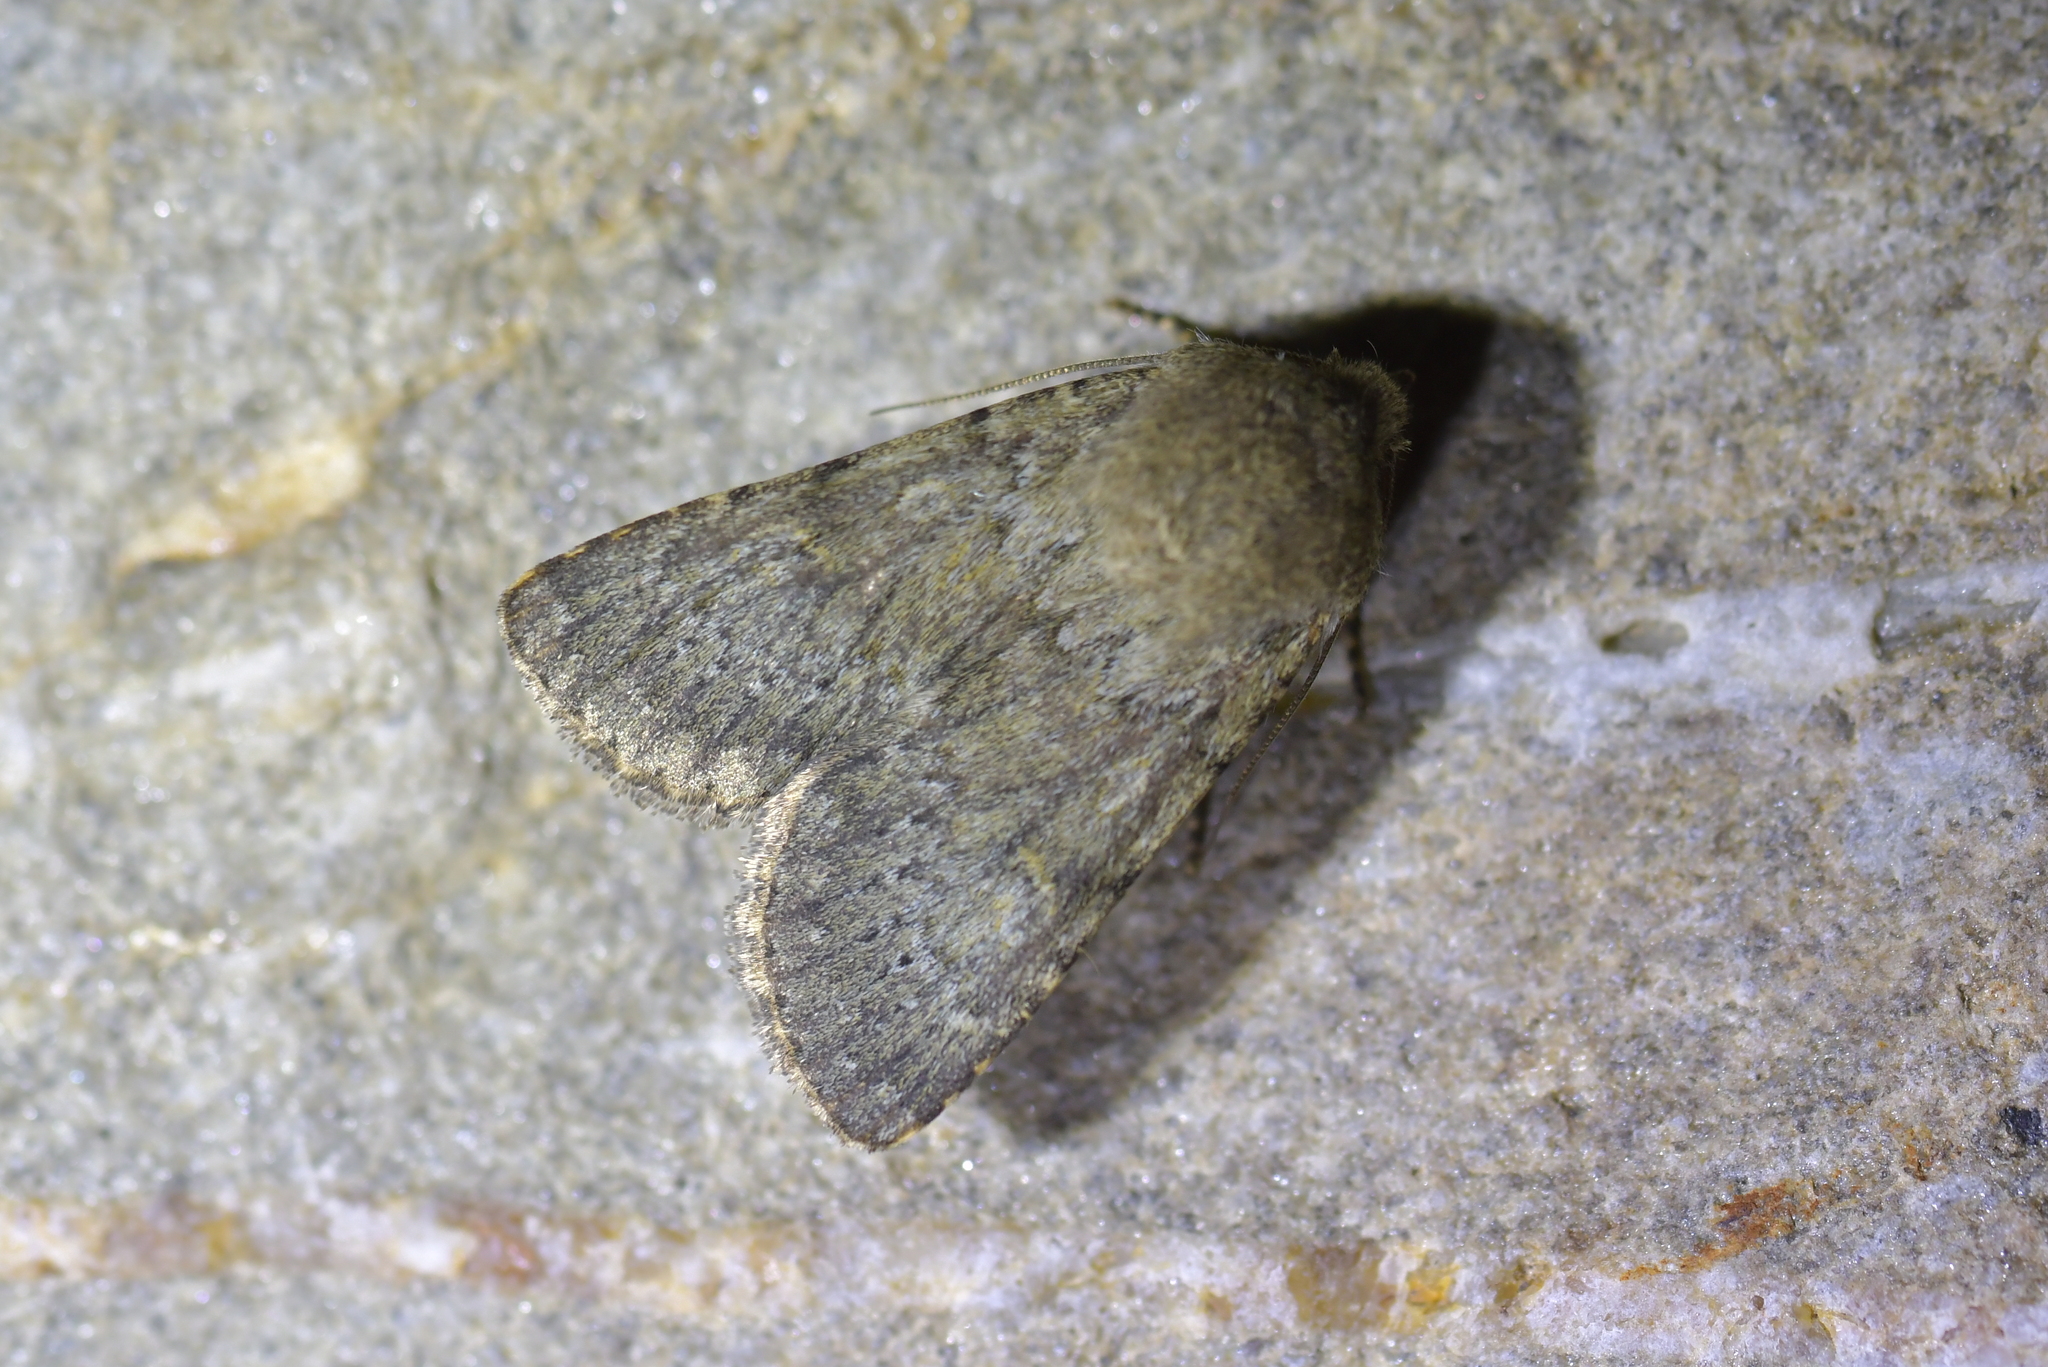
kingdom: Animalia
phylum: Arthropoda
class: Insecta
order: Lepidoptera
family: Noctuidae
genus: Ichneutica
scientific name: Ichneutica moderata
